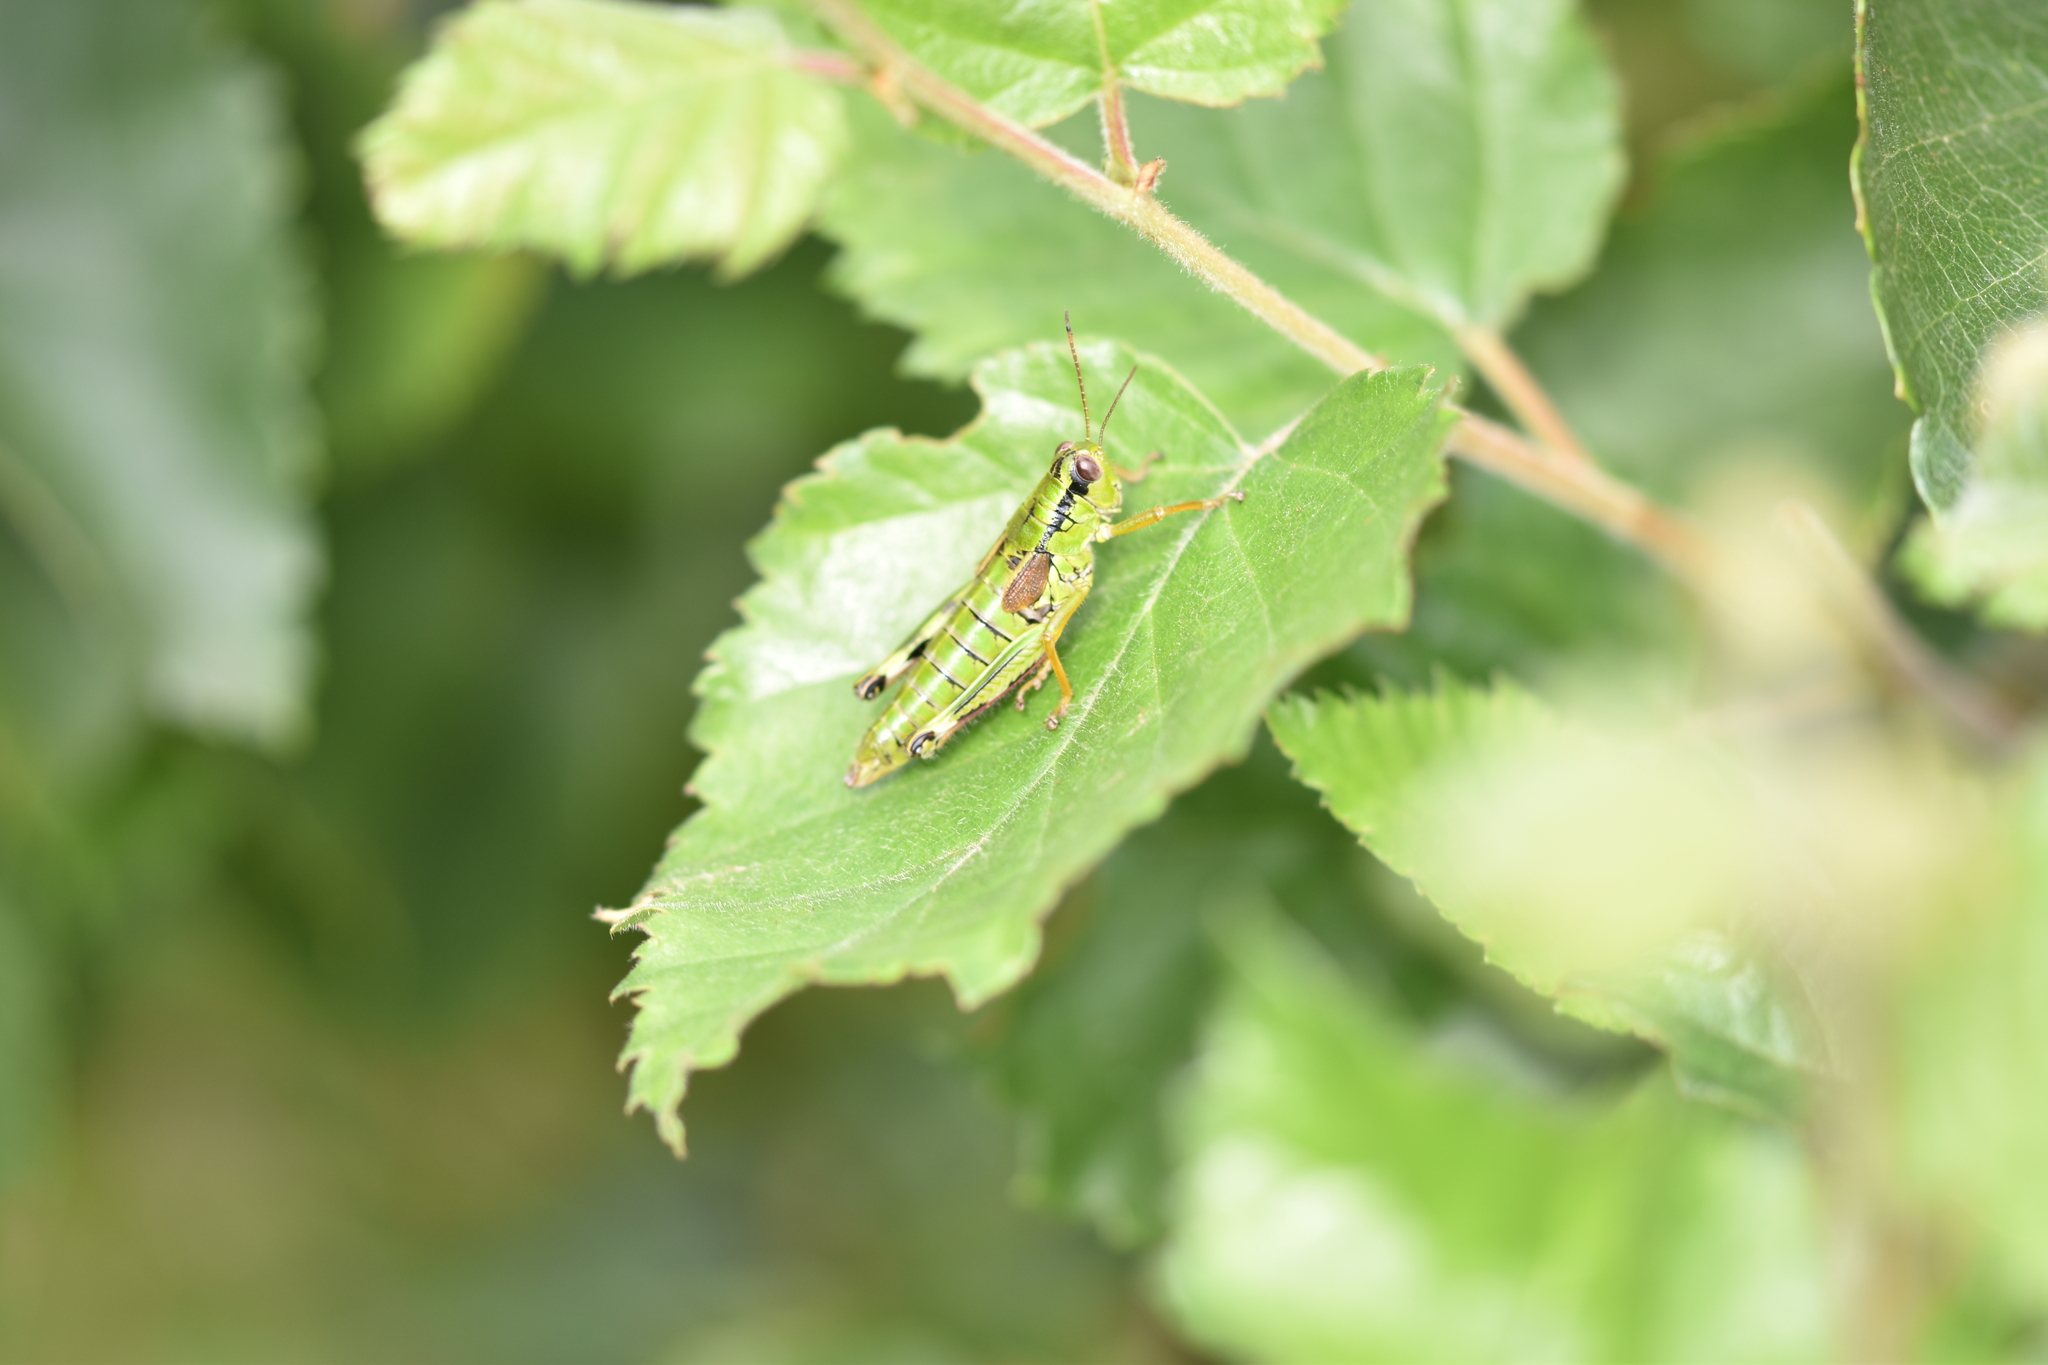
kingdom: Animalia
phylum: Arthropoda
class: Insecta
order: Orthoptera
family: Acrididae
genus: Miramella
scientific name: Miramella alpina
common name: Green mountain grasshopper
